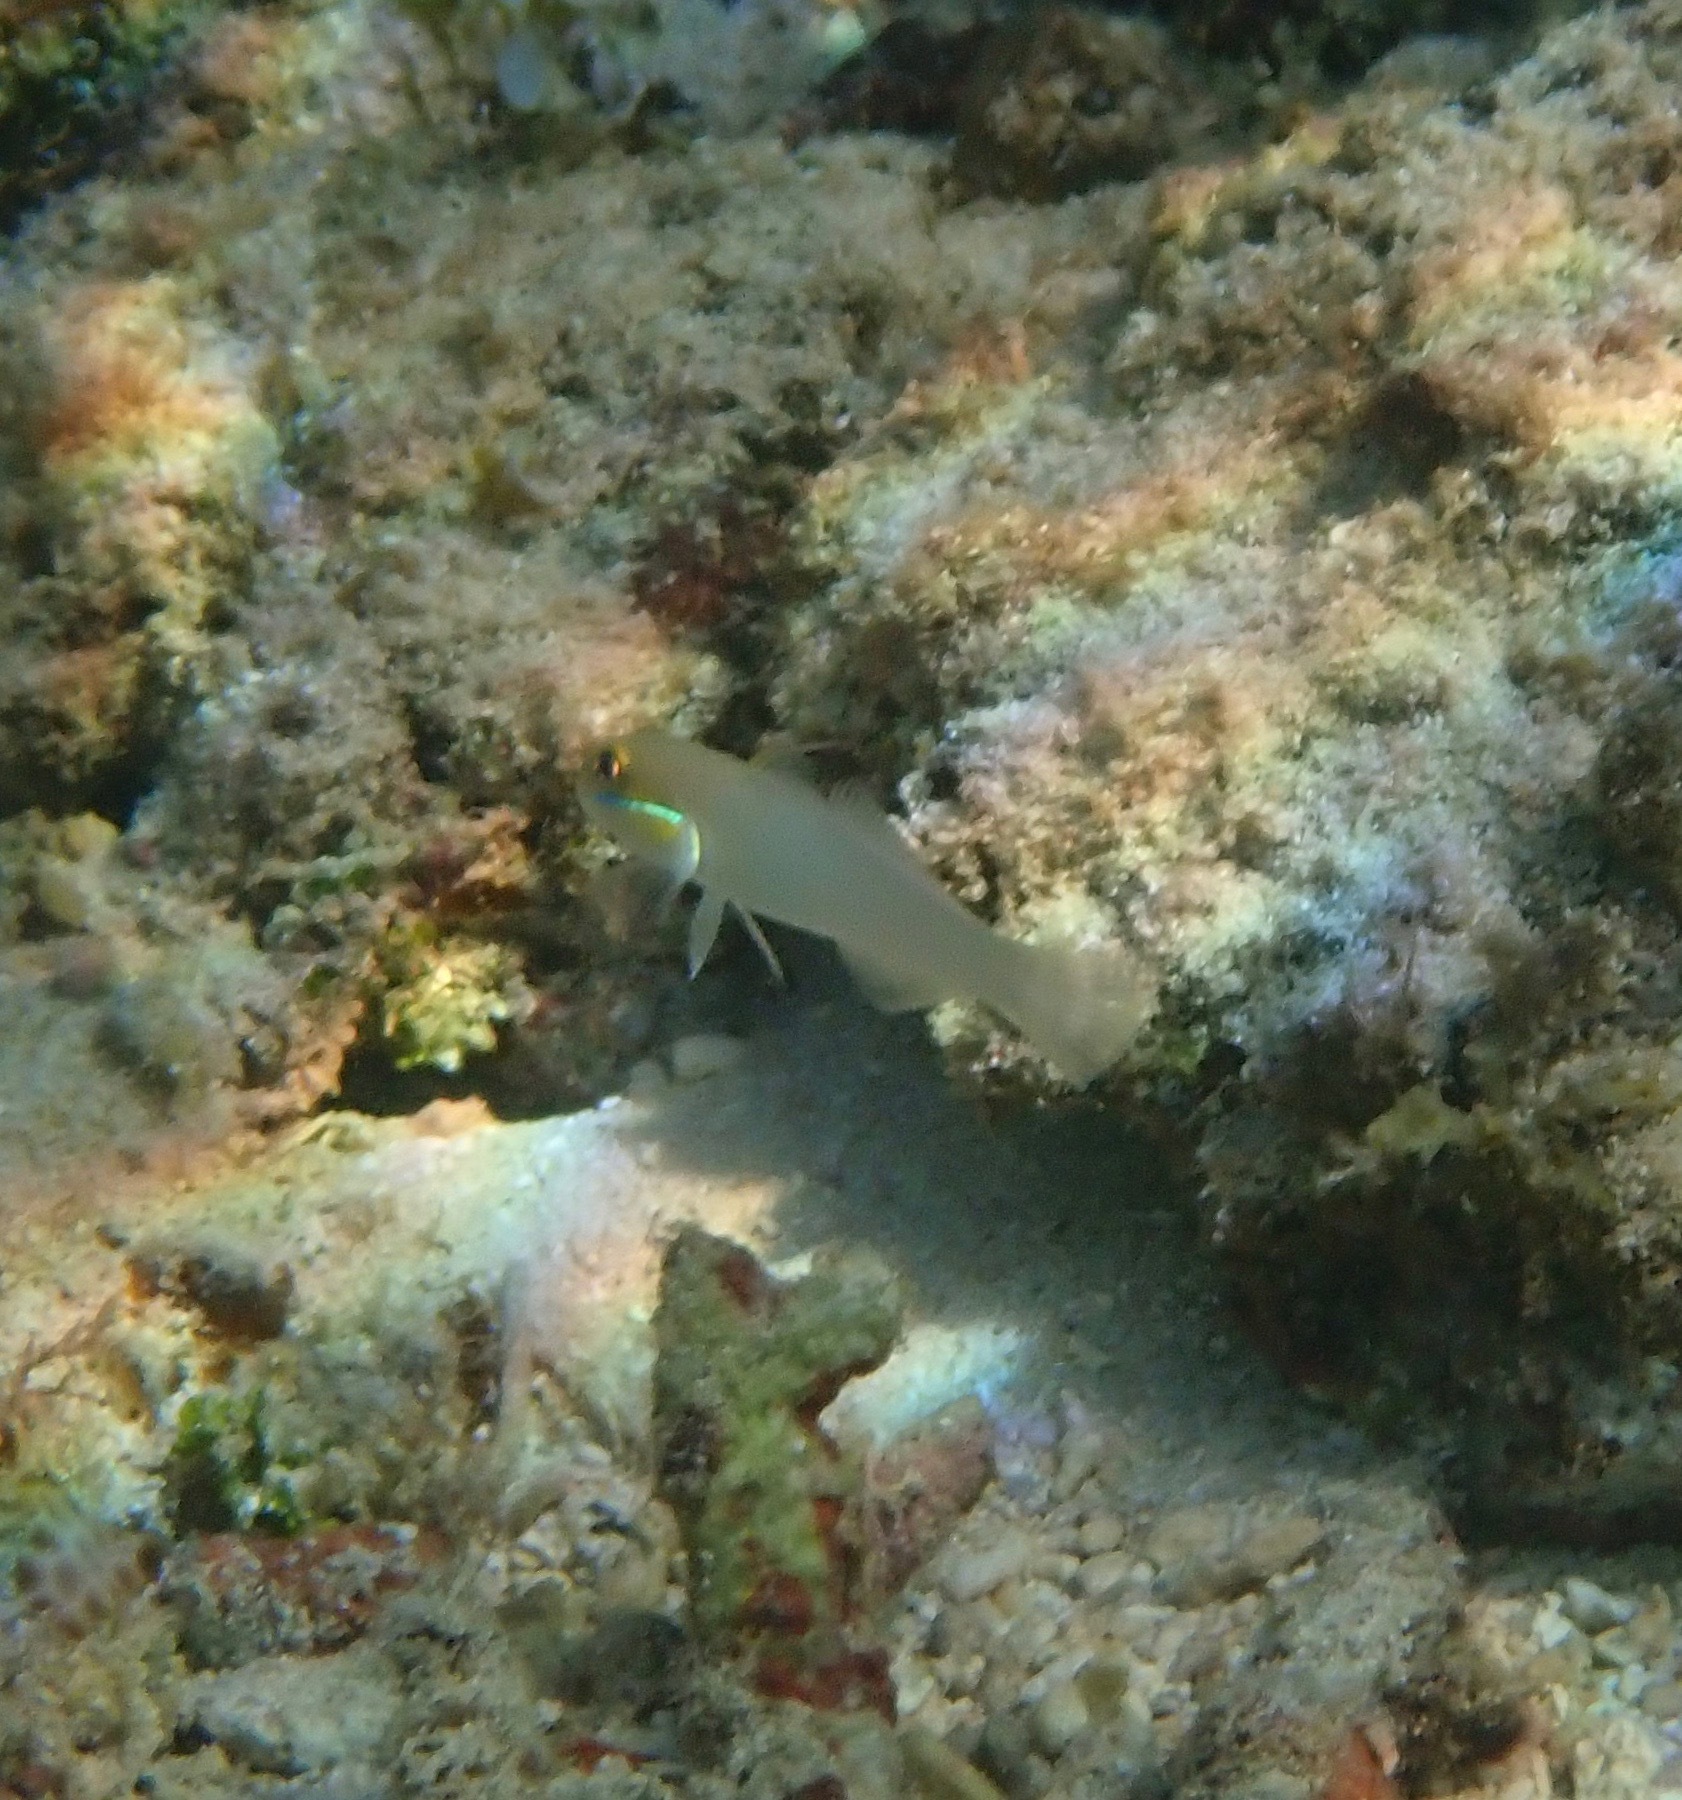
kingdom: Animalia
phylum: Chordata
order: Perciformes
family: Gobiidae
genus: Valenciennea
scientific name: Valenciennea strigata
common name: Blueband goby
